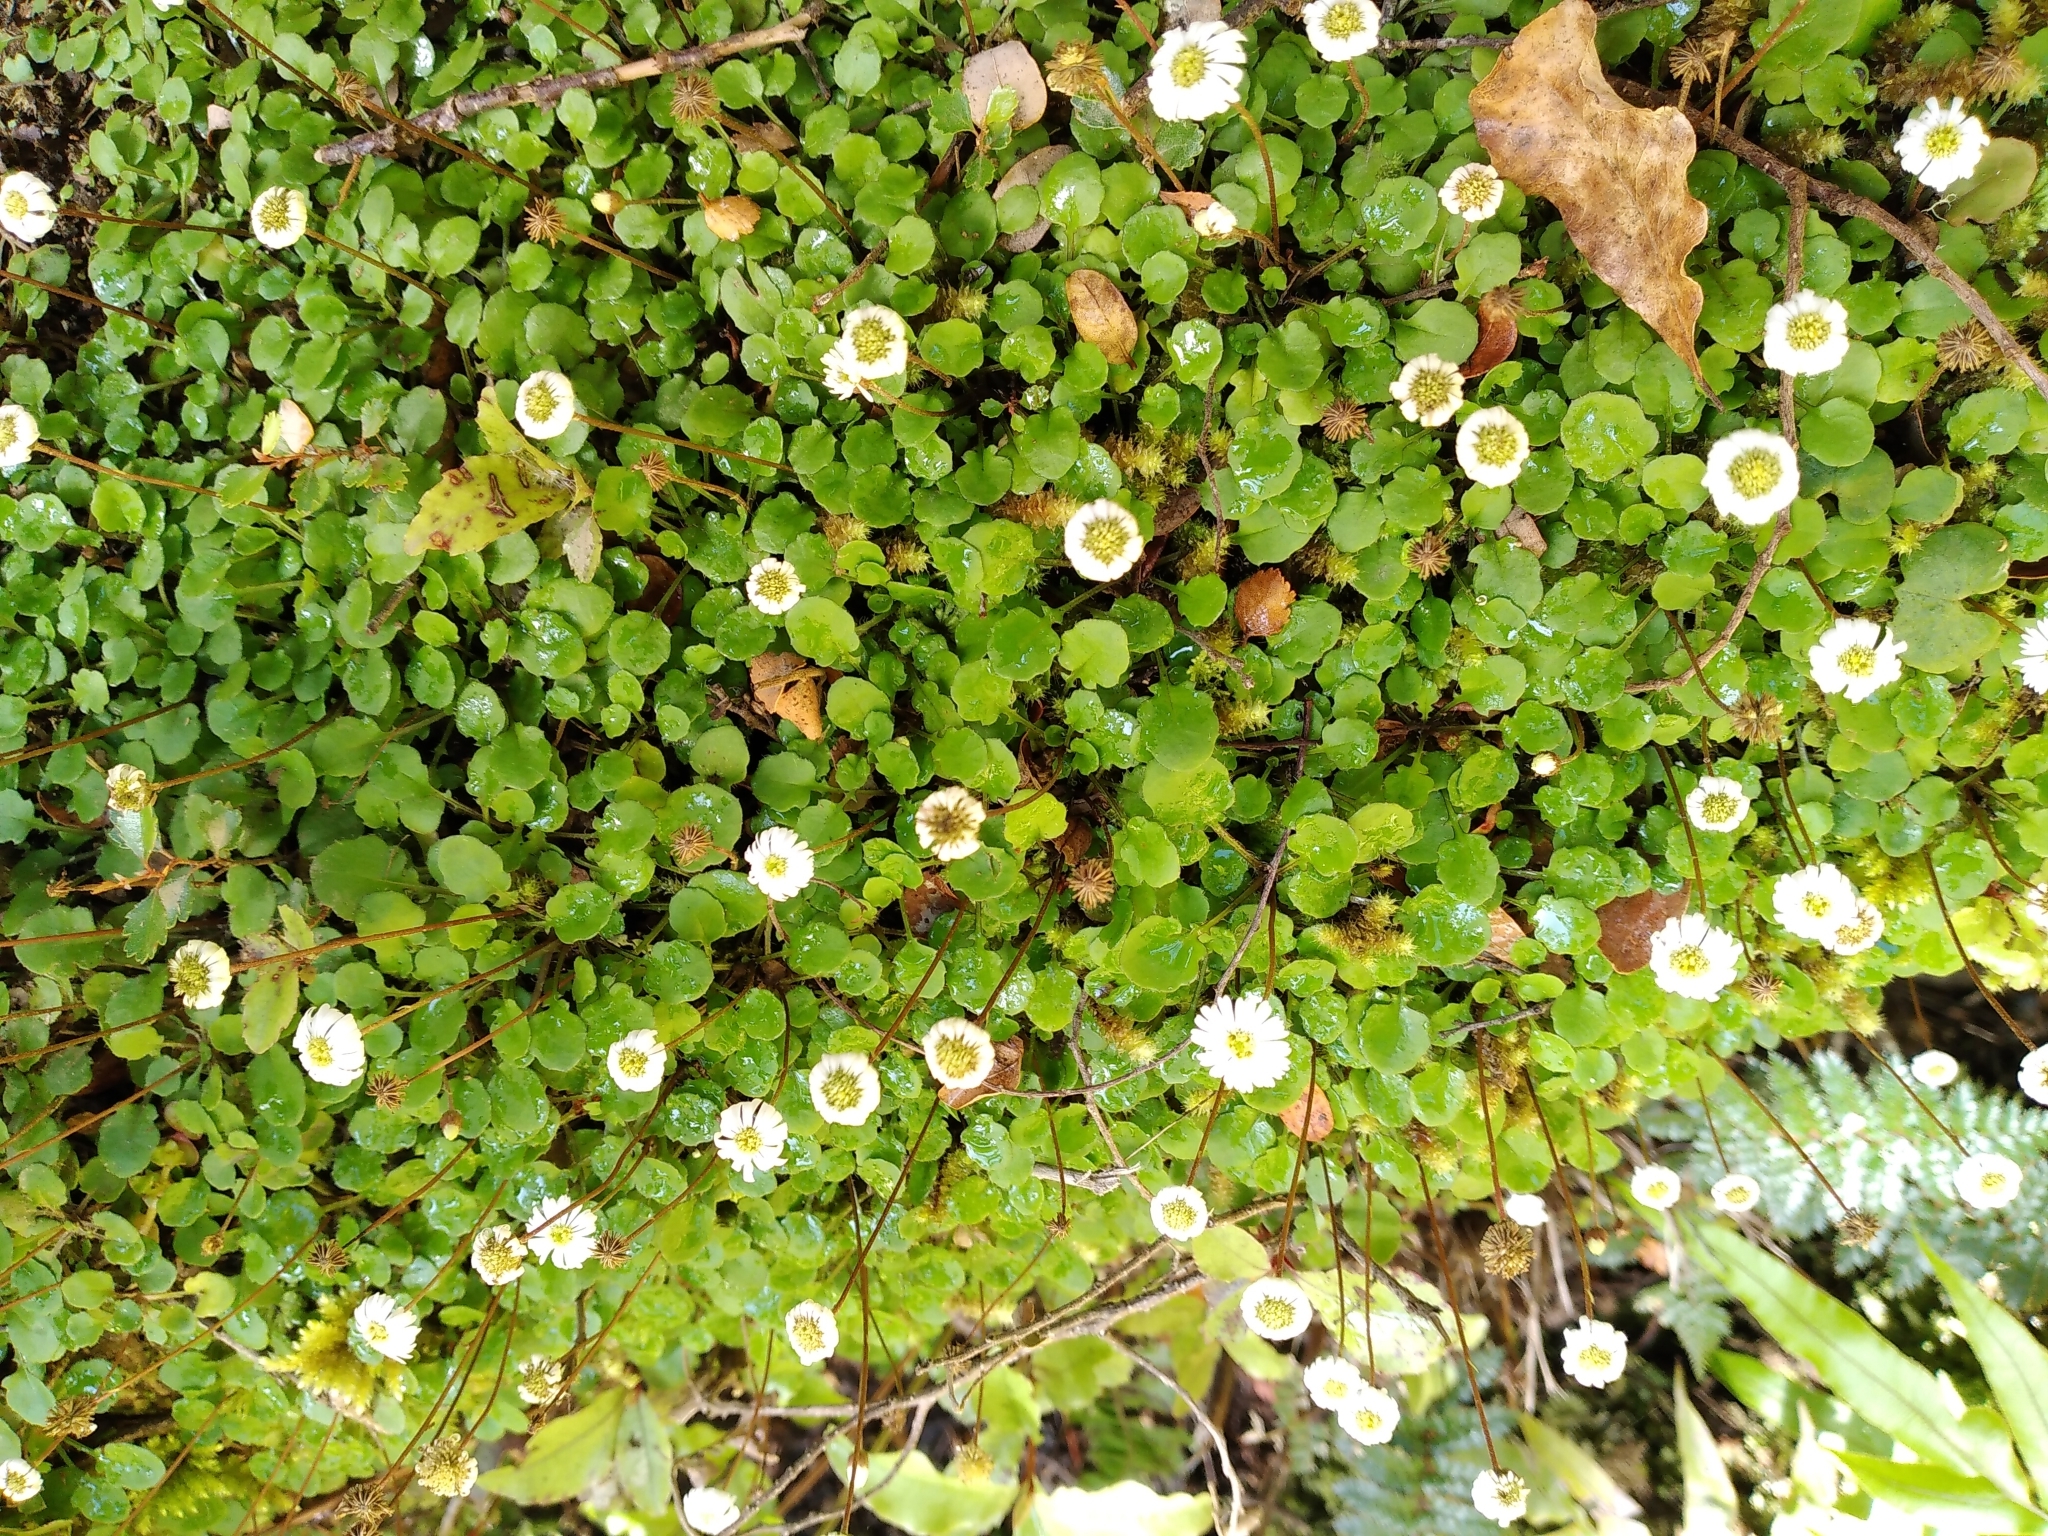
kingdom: Plantae
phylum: Tracheophyta
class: Magnoliopsida
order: Asterales
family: Asteraceae
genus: Lagenophora
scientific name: Lagenophora pumila
